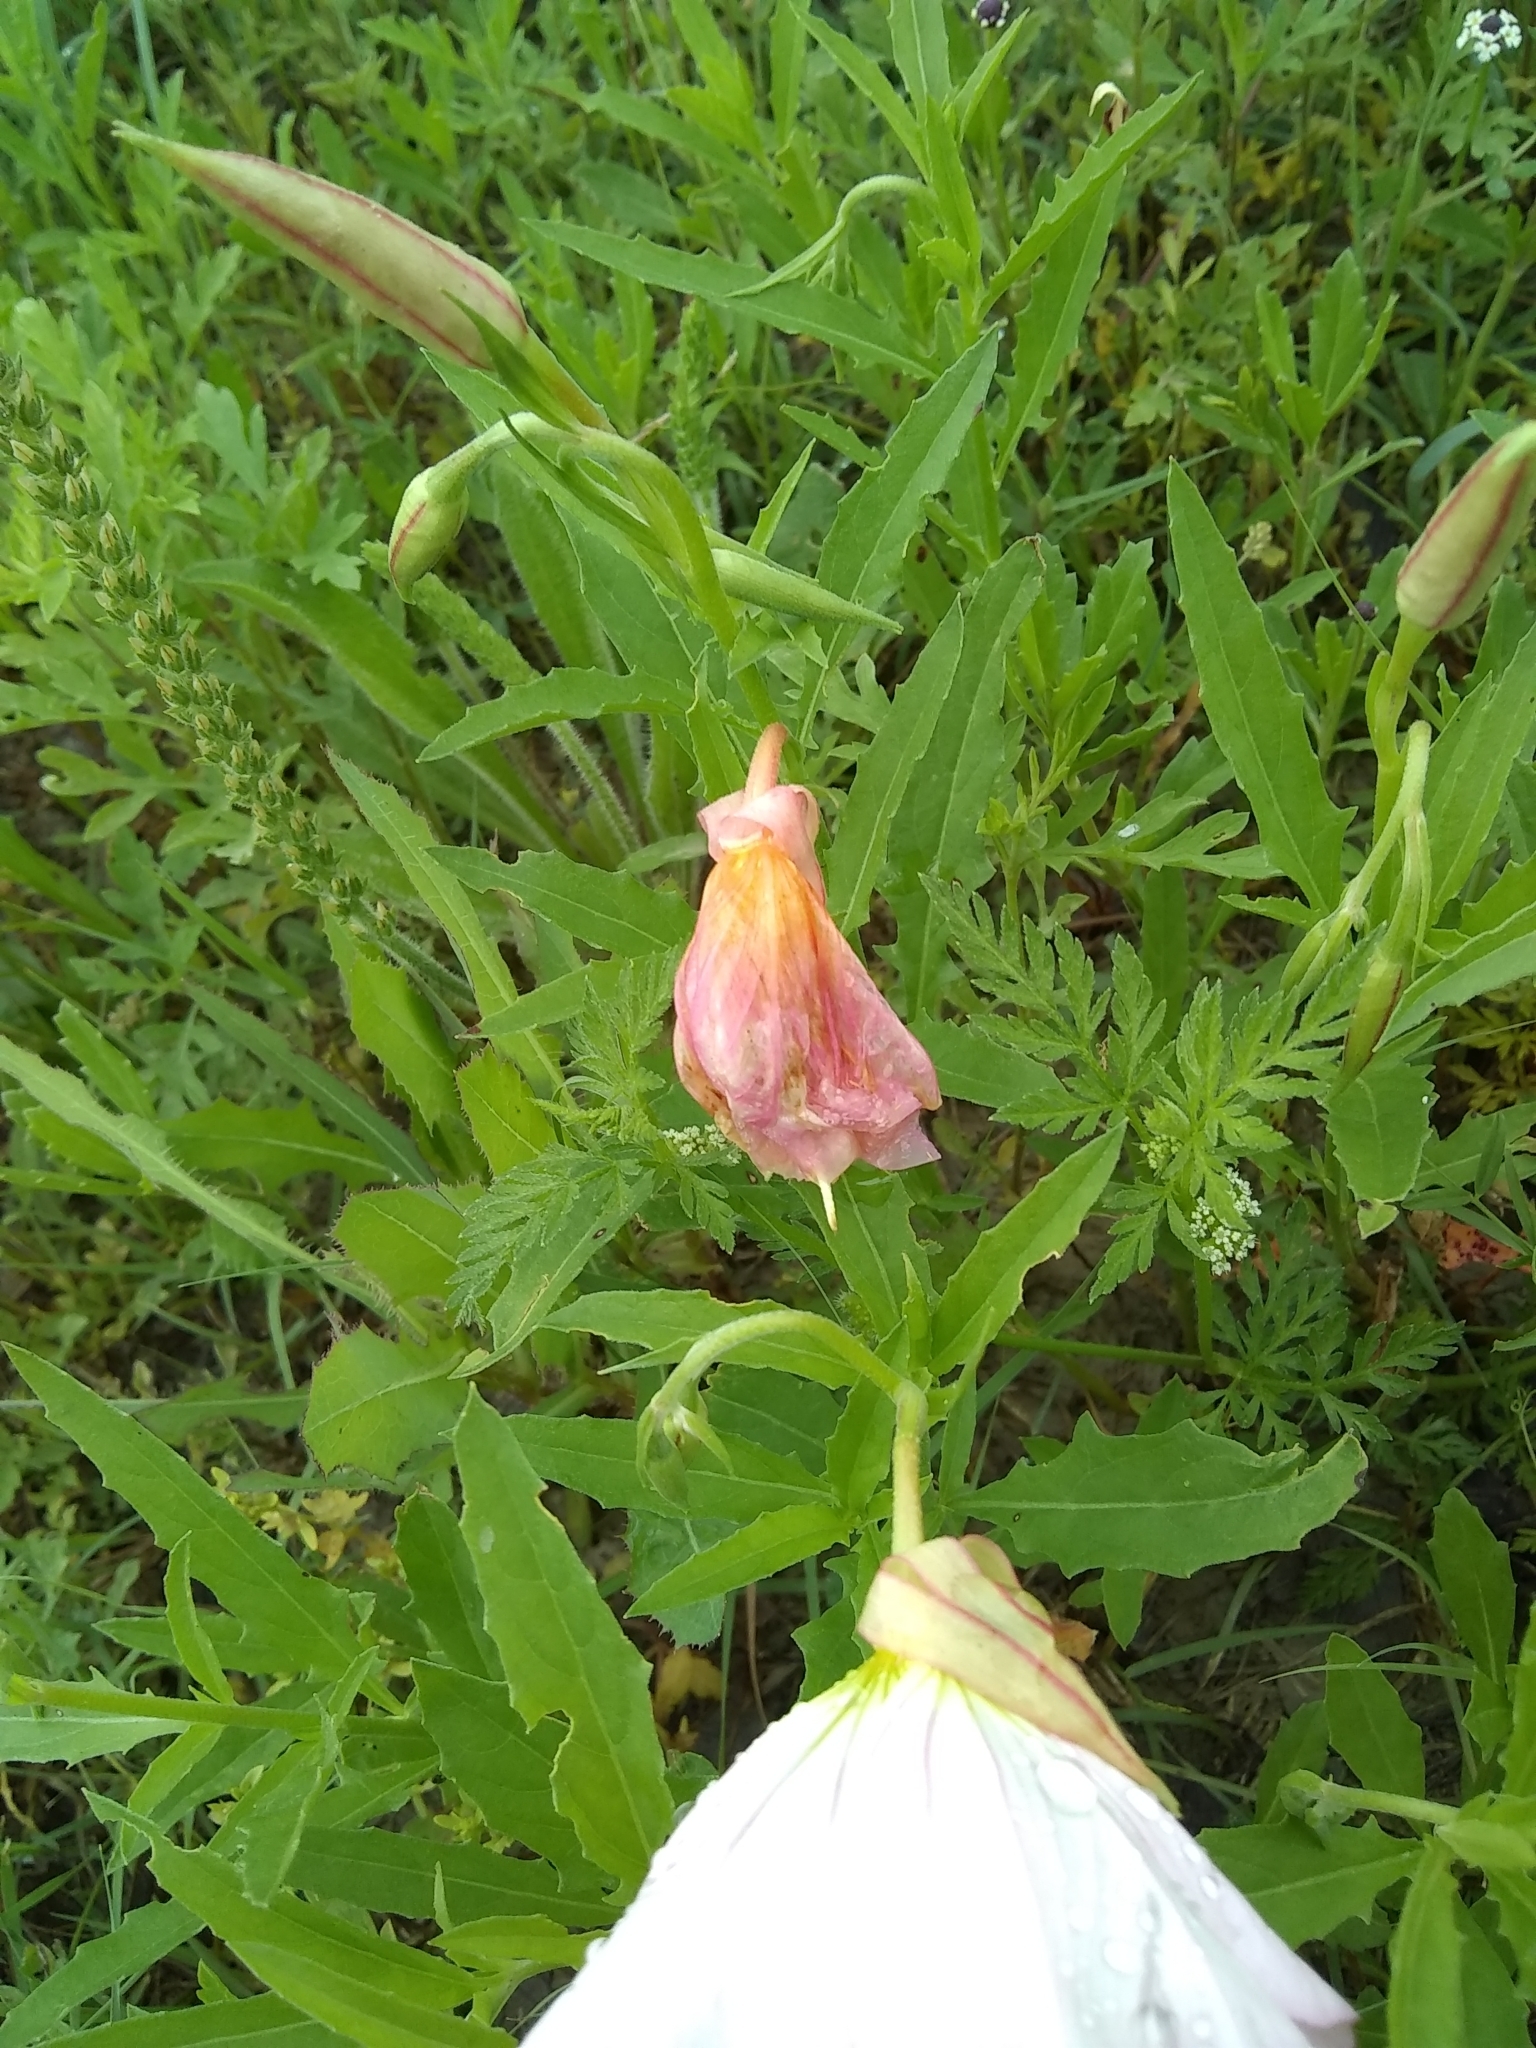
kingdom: Plantae
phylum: Tracheophyta
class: Magnoliopsida
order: Myrtales
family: Onagraceae
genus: Oenothera
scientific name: Oenothera speciosa
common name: White evening-primrose
